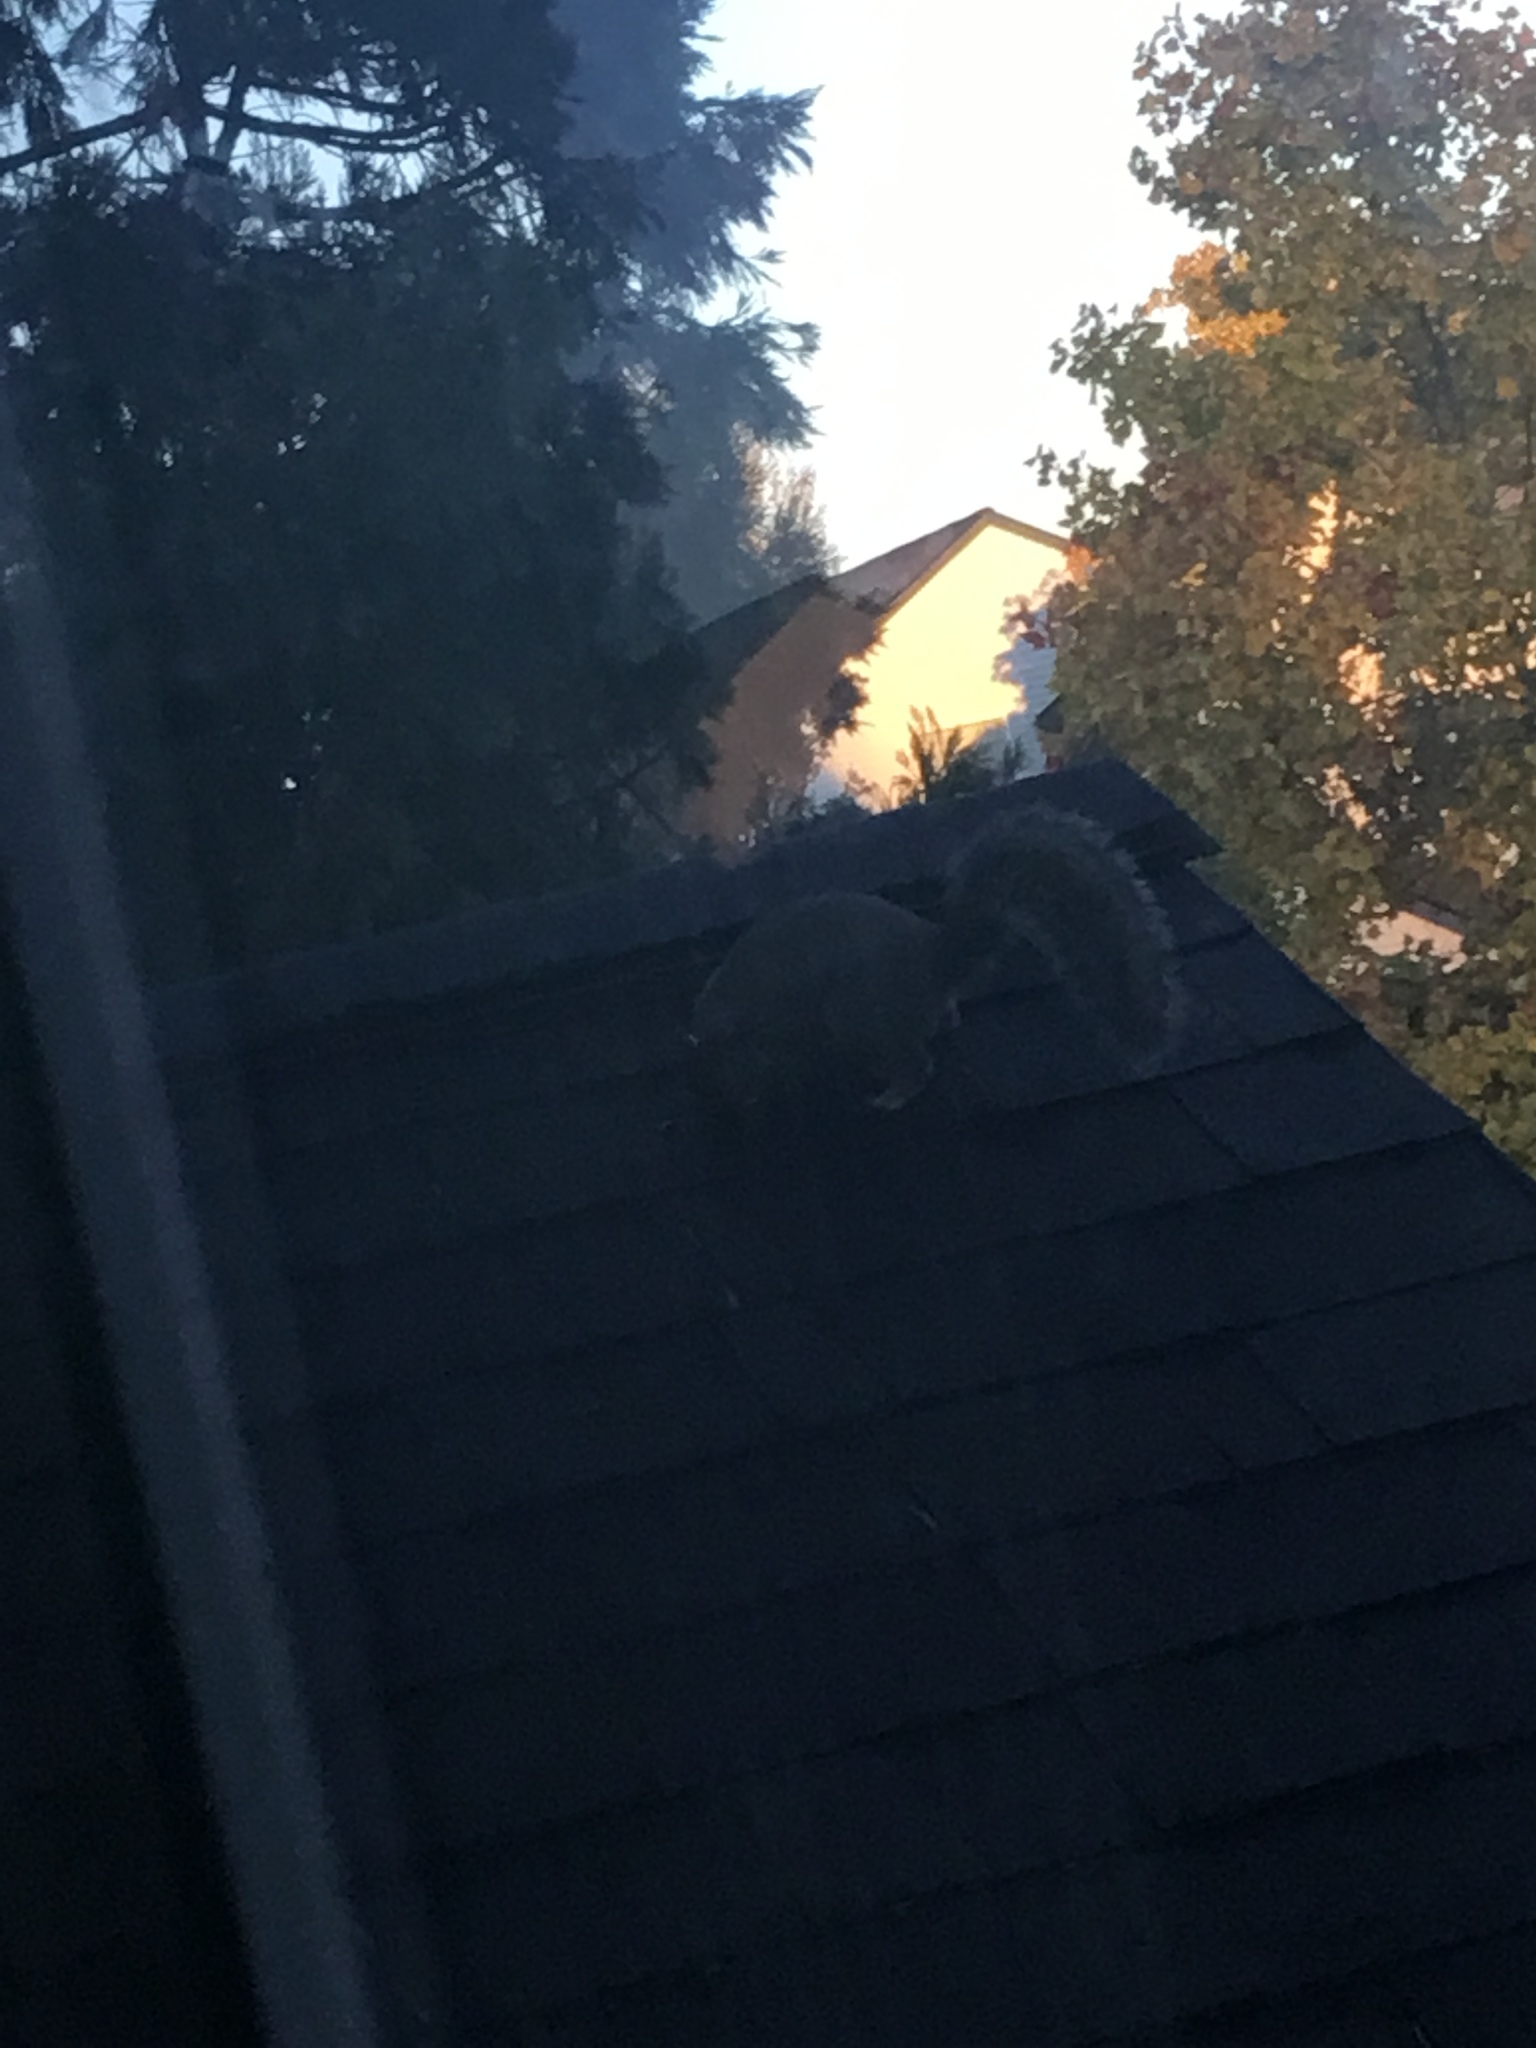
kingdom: Animalia
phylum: Chordata
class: Mammalia
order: Rodentia
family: Sciuridae
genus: Sciurus
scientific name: Sciurus carolinensis
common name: Eastern gray squirrel
